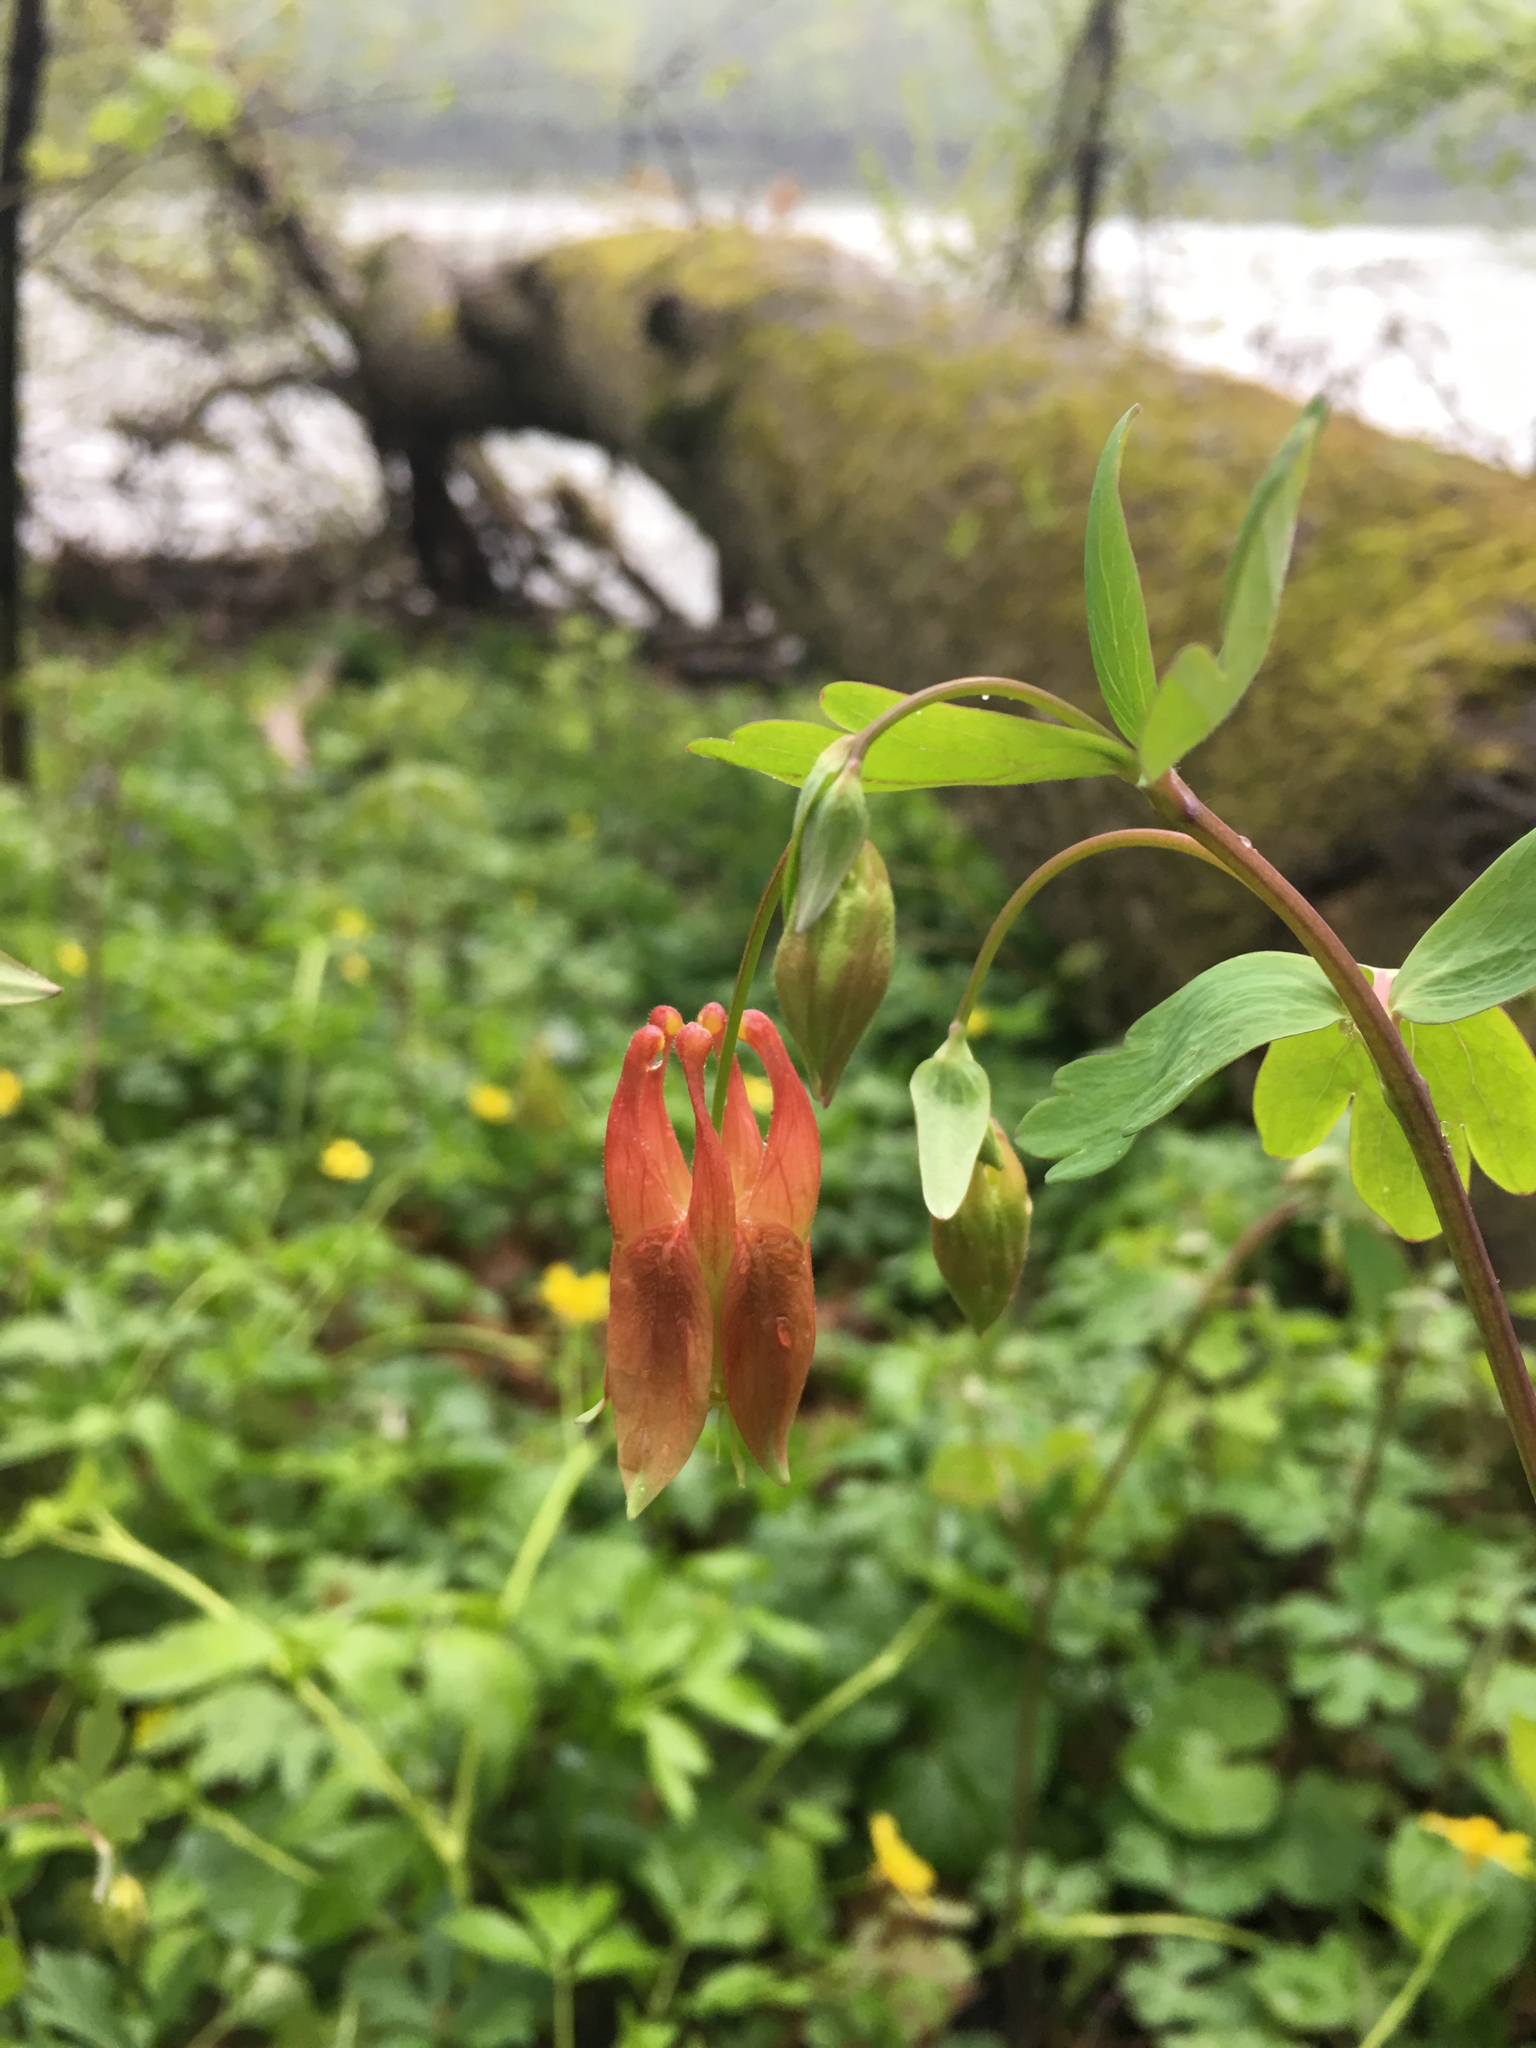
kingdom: Plantae
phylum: Tracheophyta
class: Magnoliopsida
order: Ranunculales
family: Ranunculaceae
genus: Aquilegia
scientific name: Aquilegia canadensis
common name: American columbine
